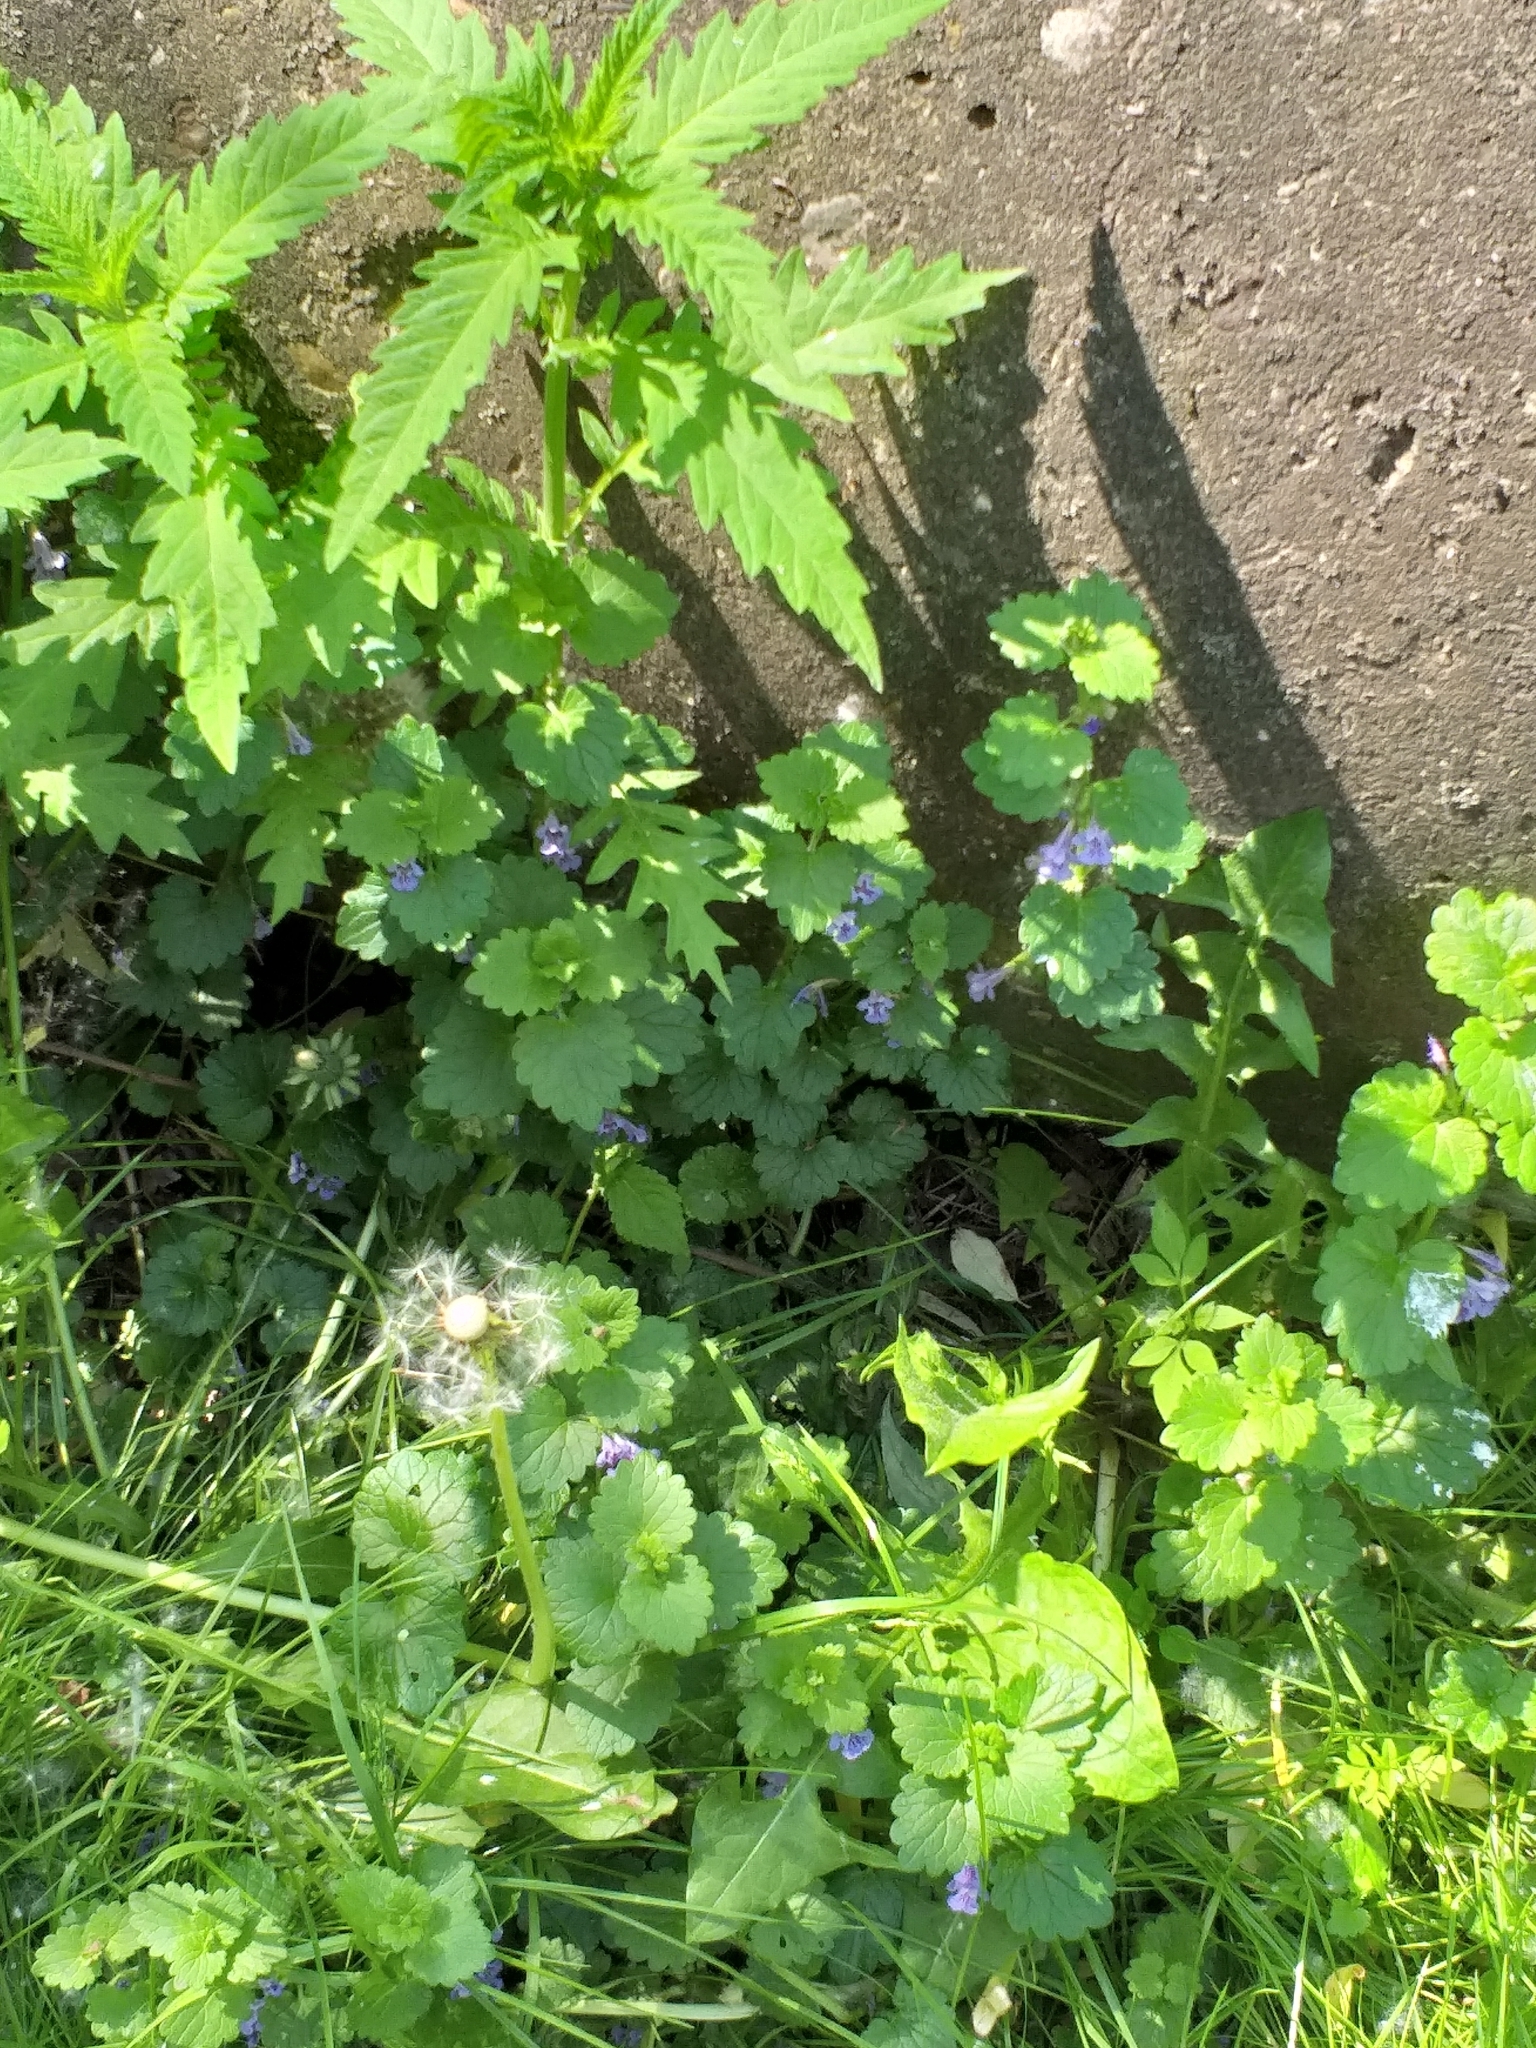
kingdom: Plantae
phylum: Tracheophyta
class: Magnoliopsida
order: Lamiales
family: Lamiaceae
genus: Glechoma
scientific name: Glechoma hederacea
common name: Ground ivy
